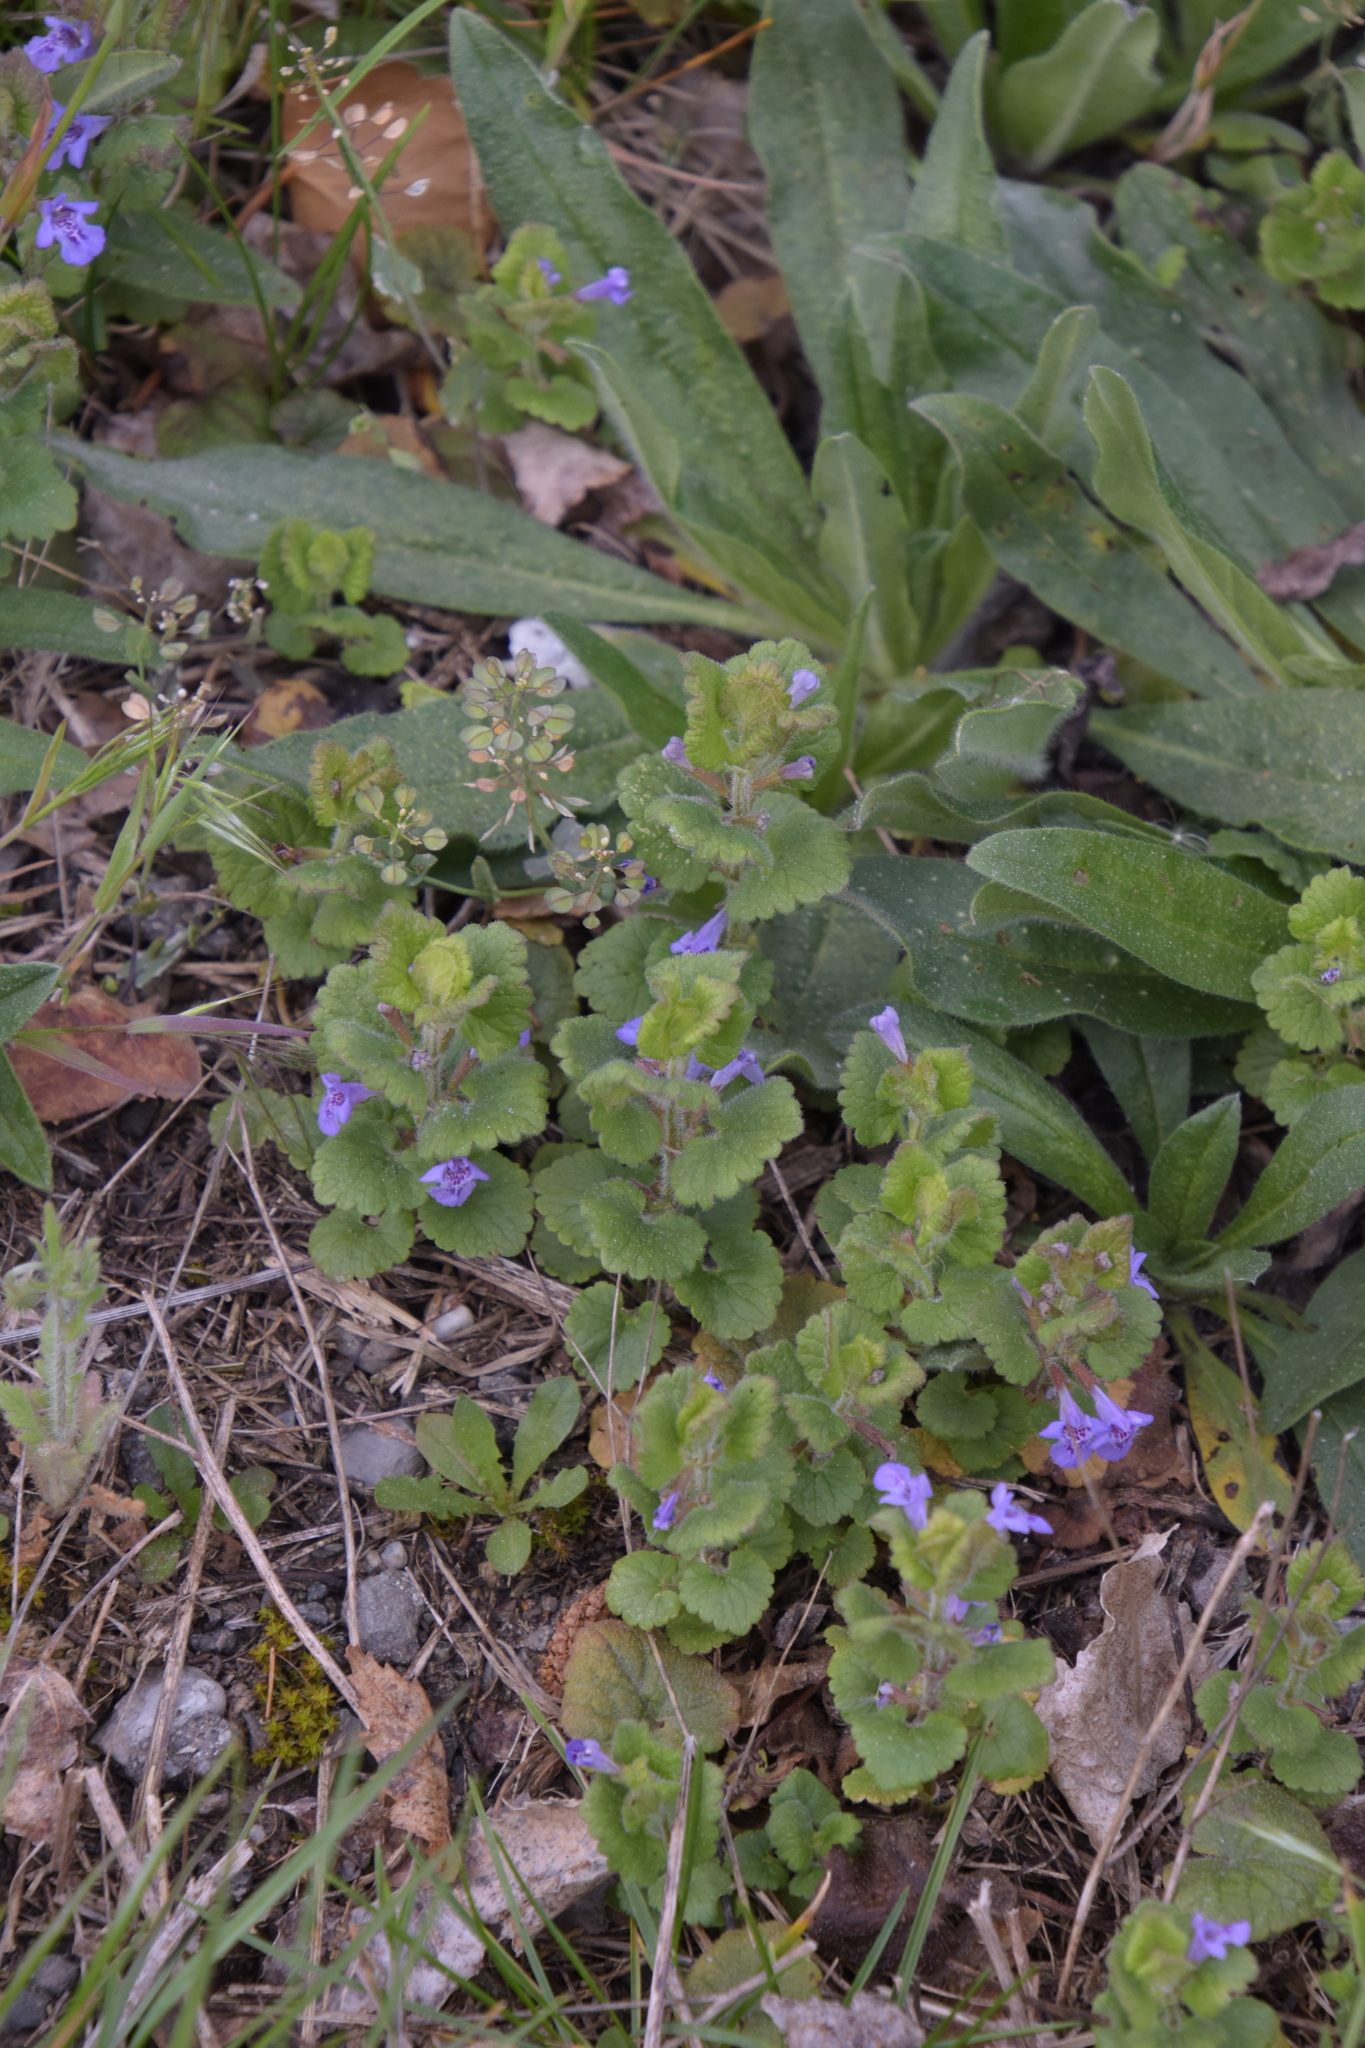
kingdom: Plantae
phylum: Tracheophyta
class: Magnoliopsida
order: Lamiales
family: Lamiaceae
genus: Glechoma
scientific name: Glechoma hederacea
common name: Ground ivy
